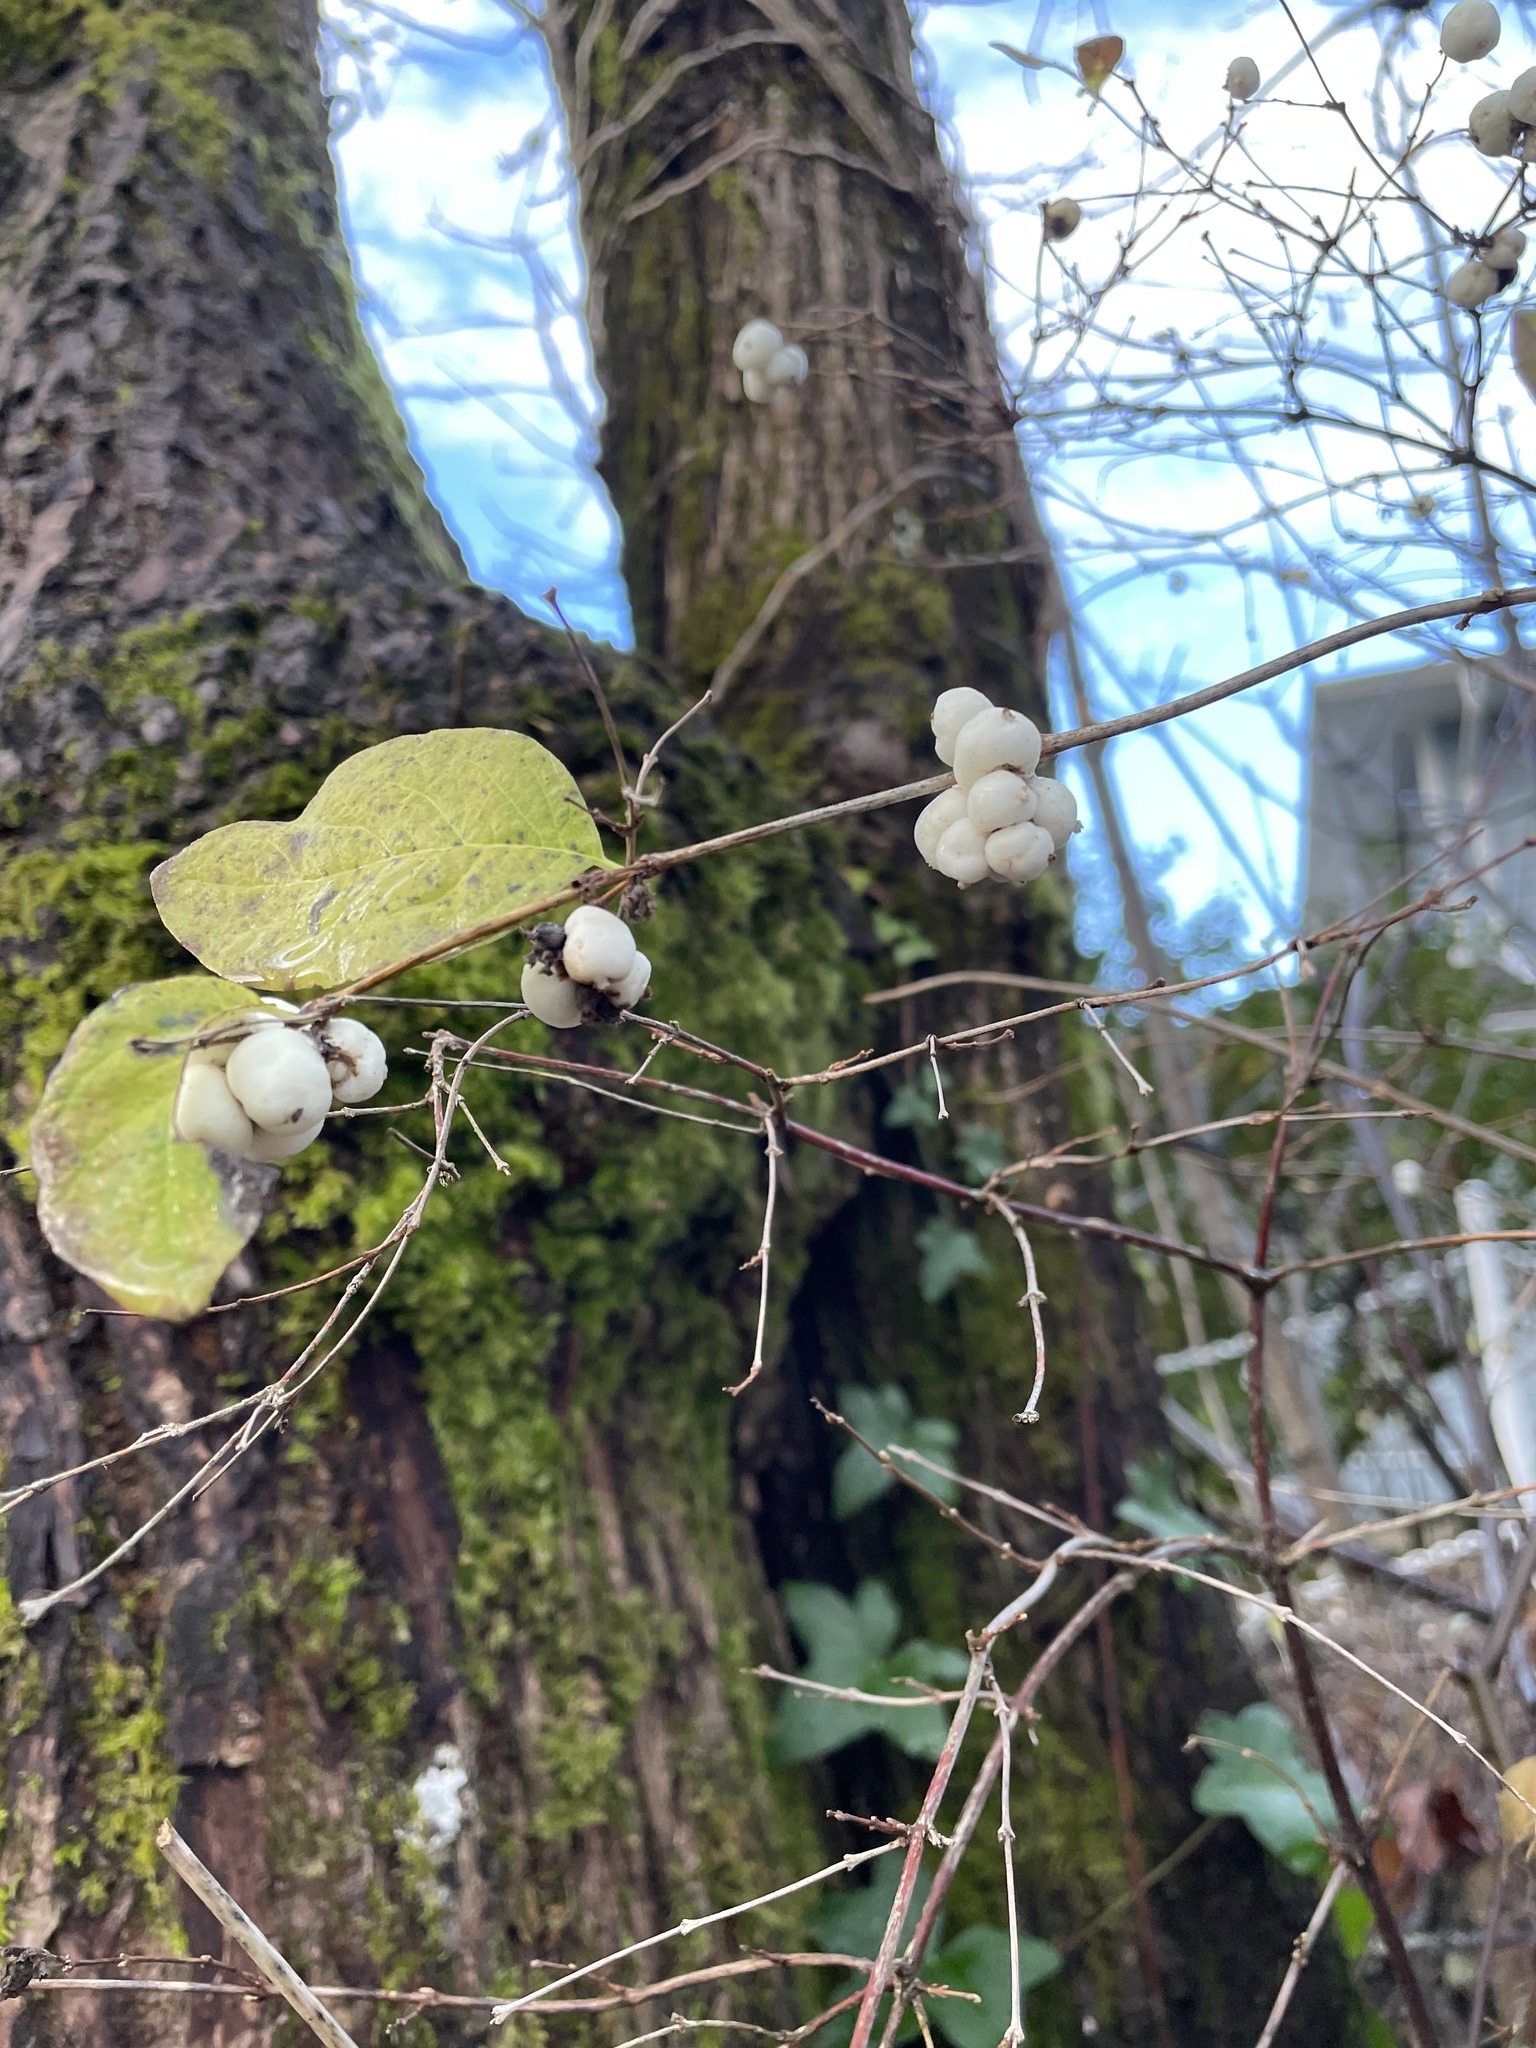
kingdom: Plantae
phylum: Tracheophyta
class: Magnoliopsida
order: Dipsacales
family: Caprifoliaceae
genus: Symphoricarpos
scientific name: Symphoricarpos albus
